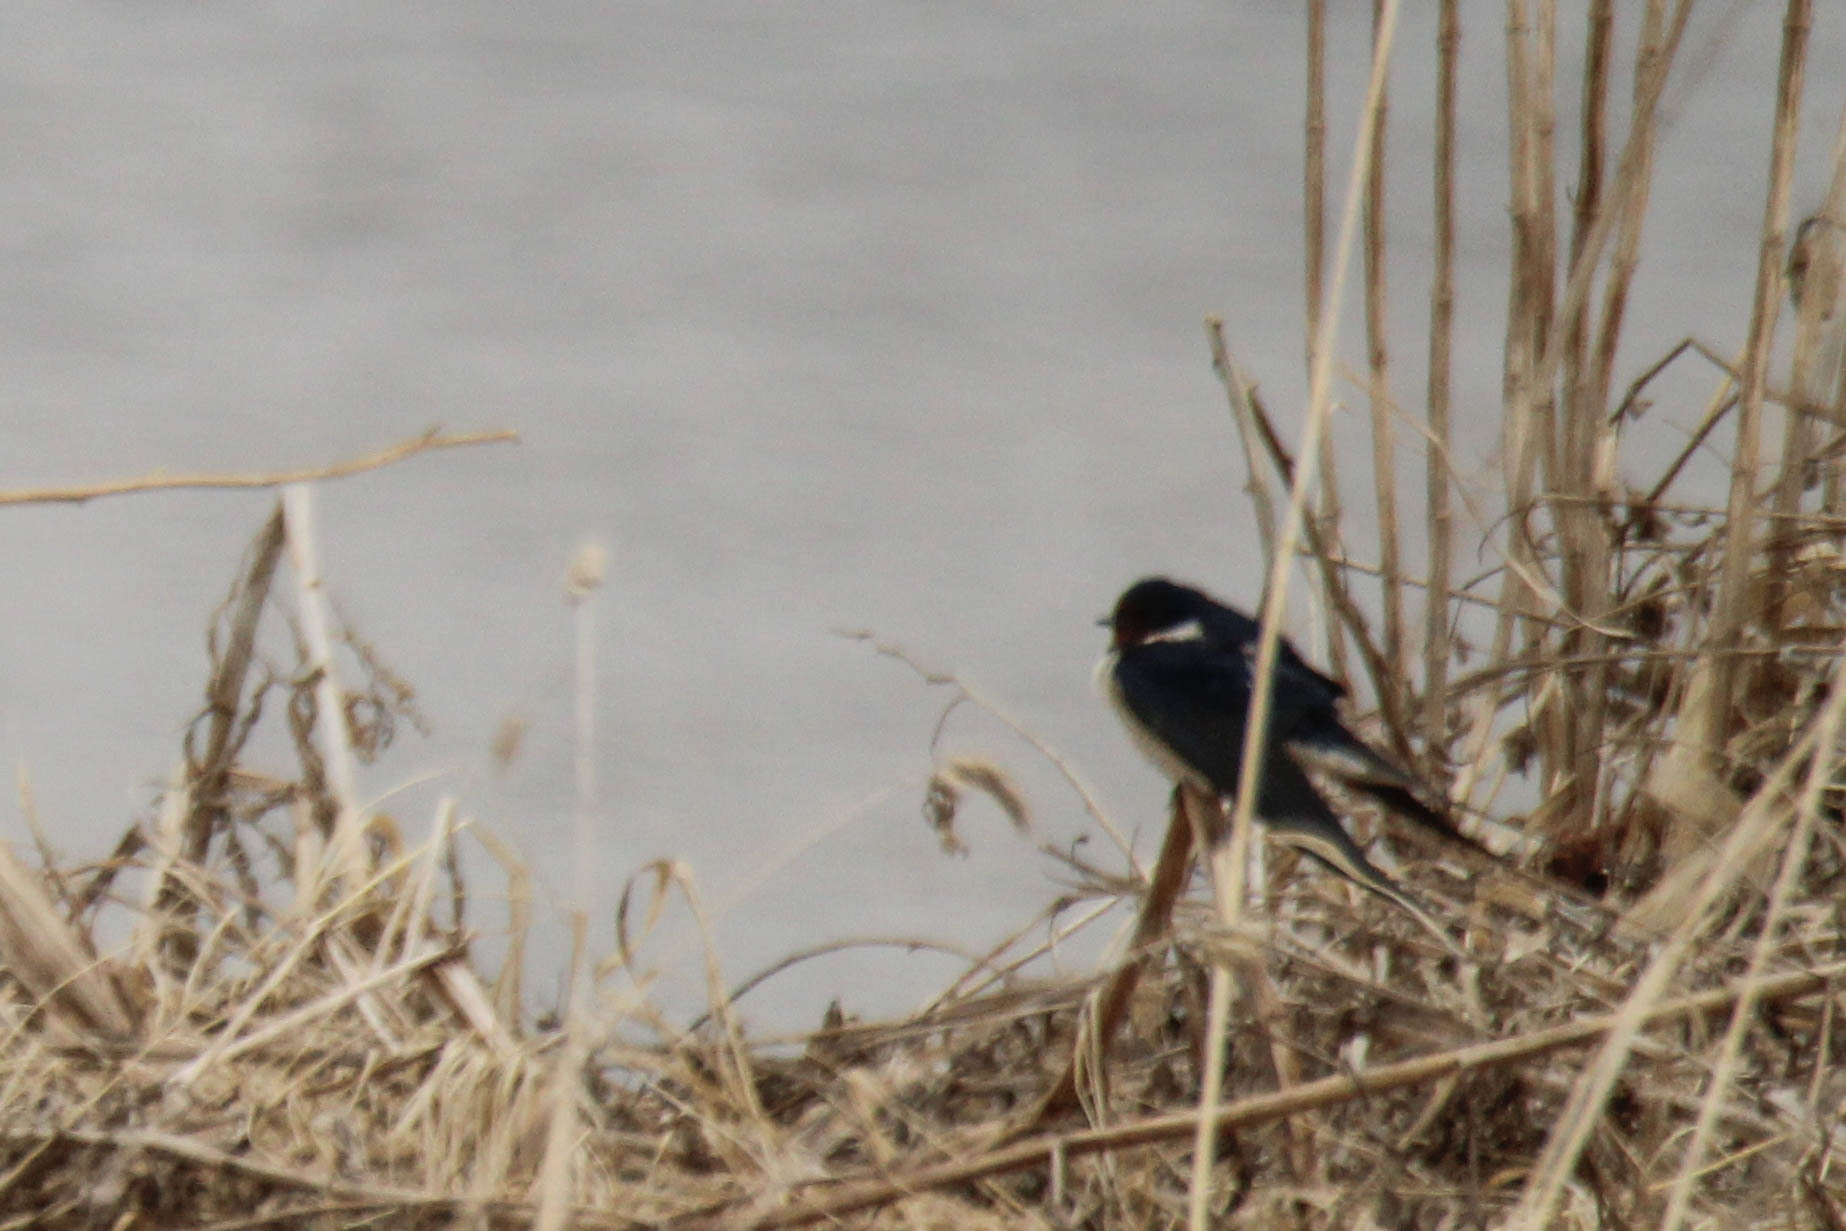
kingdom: Animalia
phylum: Chordata
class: Aves
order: Passeriformes
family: Hirundinidae
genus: Hirundo
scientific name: Hirundo rustica
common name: Barn swallow
